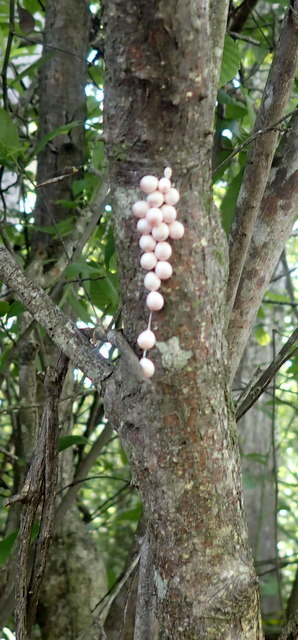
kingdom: Animalia
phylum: Mollusca
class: Gastropoda
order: Architaenioglossa
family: Ampullariidae
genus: Pomacea
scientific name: Pomacea paludosa
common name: Florida applesnail
